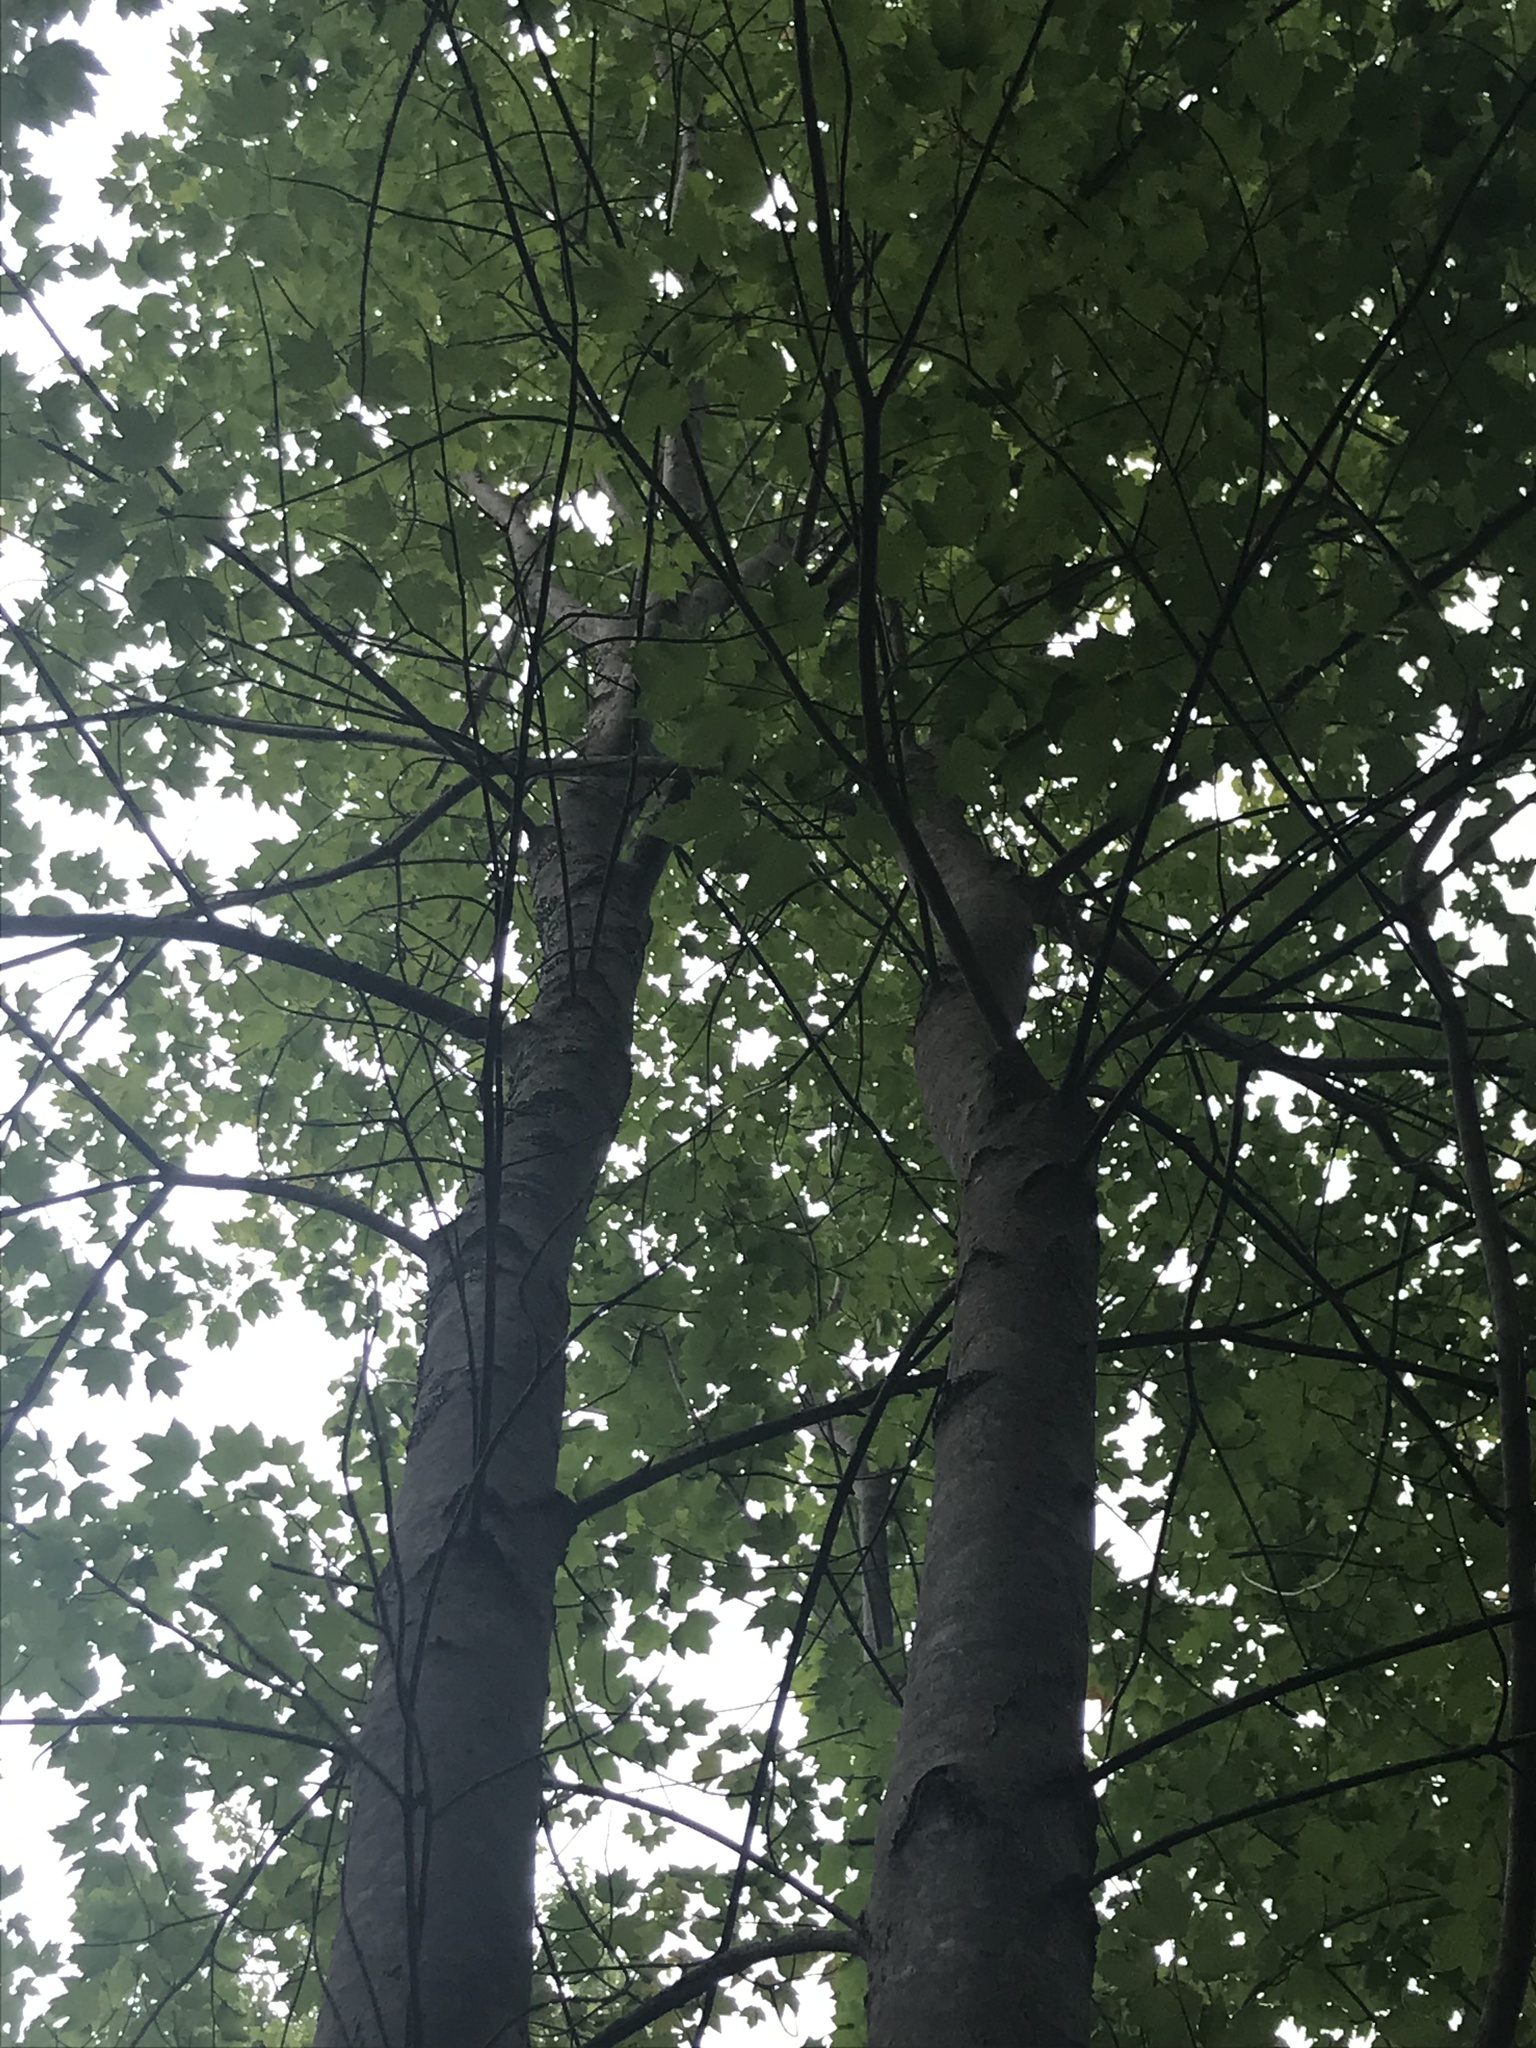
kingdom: Plantae
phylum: Tracheophyta
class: Magnoliopsida
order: Sapindales
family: Sapindaceae
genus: Acer
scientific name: Acer rubrum
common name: Red maple
